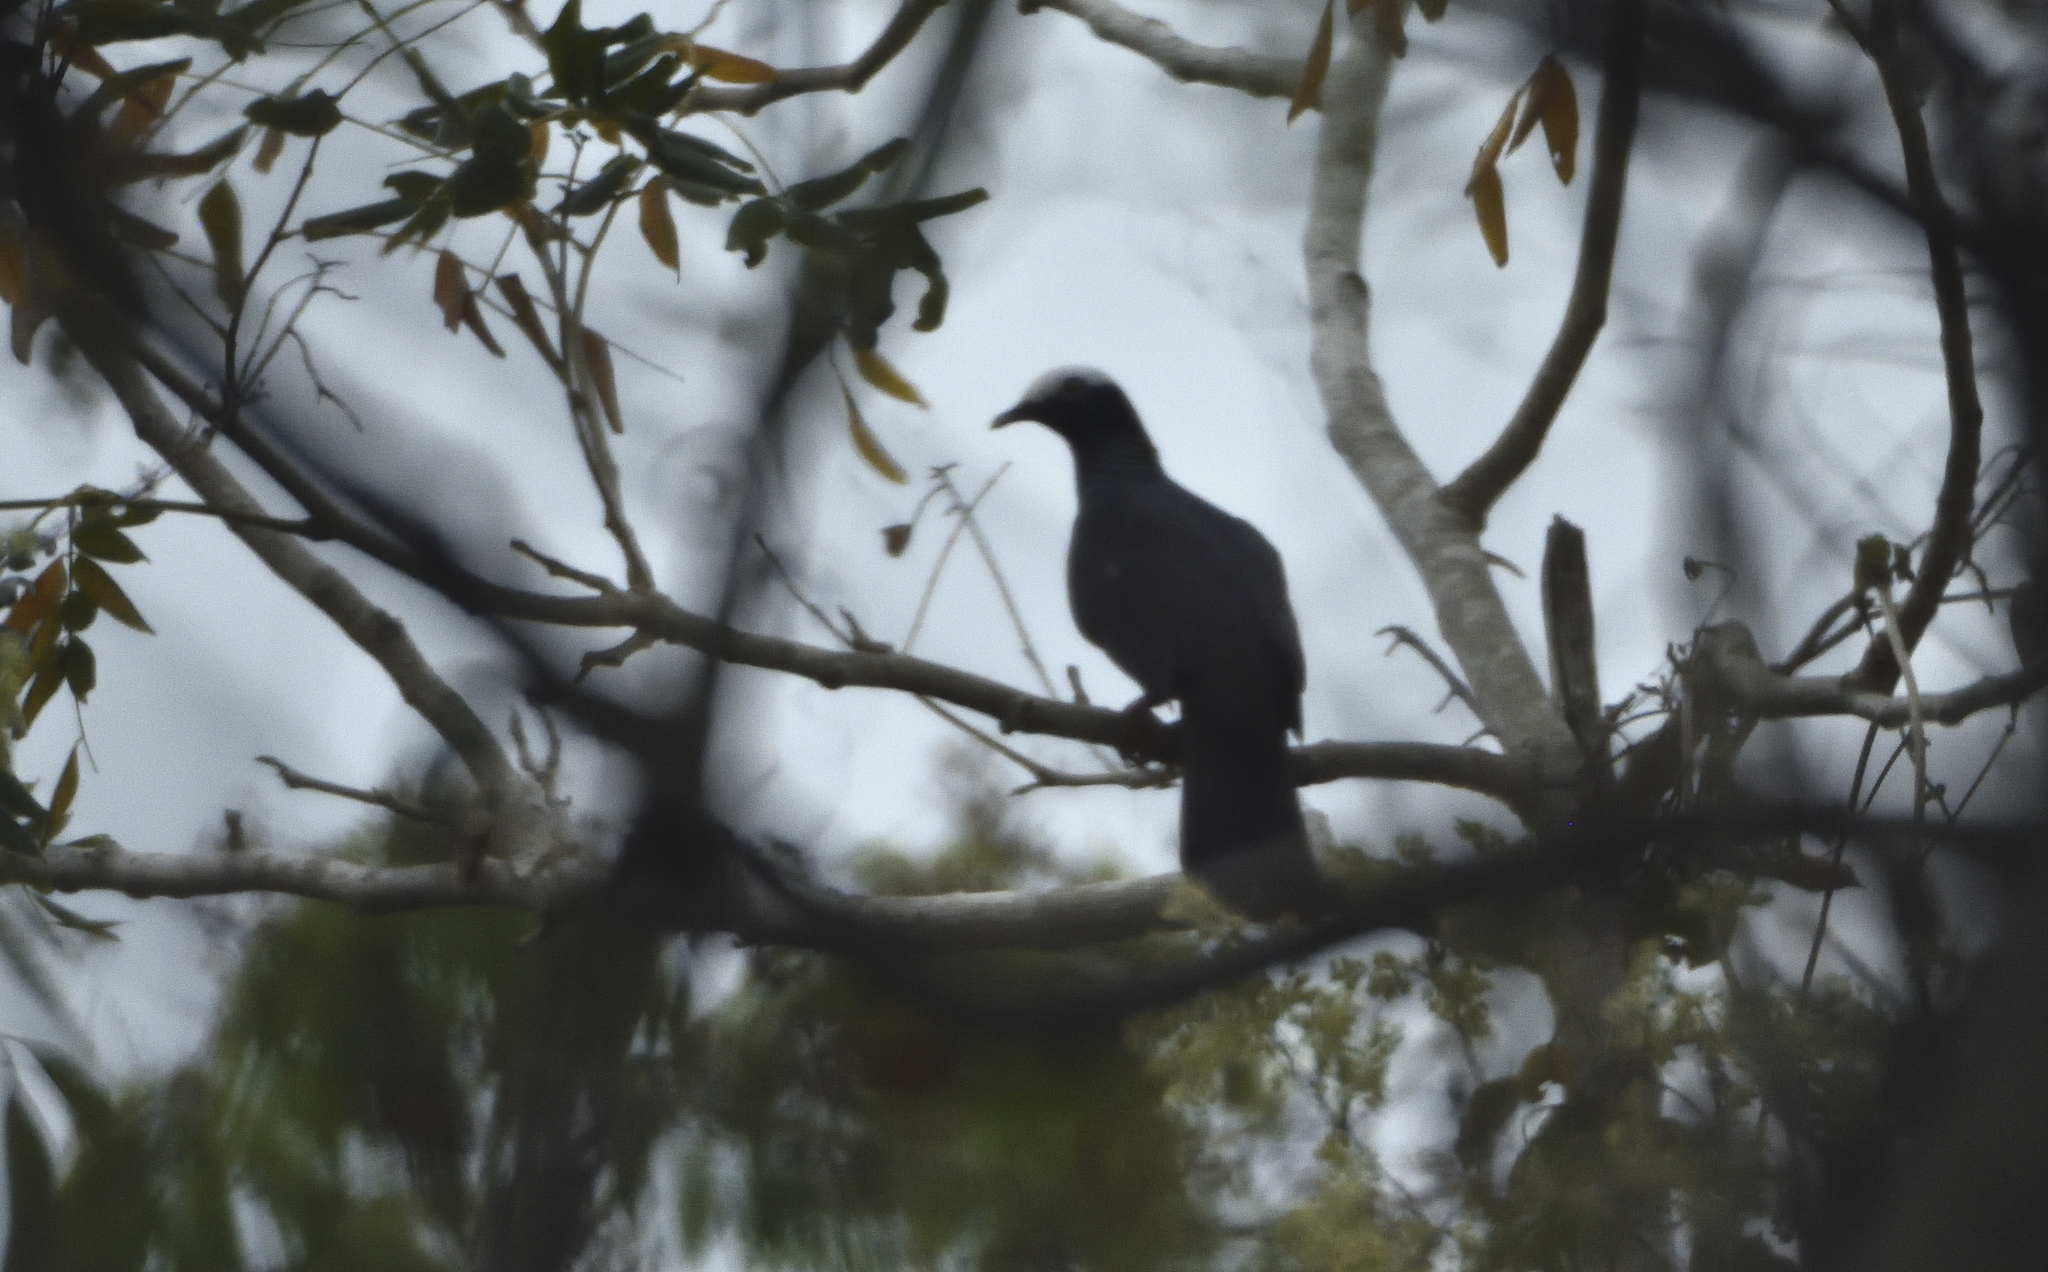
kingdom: Animalia
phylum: Chordata
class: Aves
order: Columbiformes
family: Columbidae
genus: Patagioenas
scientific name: Patagioenas leucocephala
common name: White-crowned pigeon
